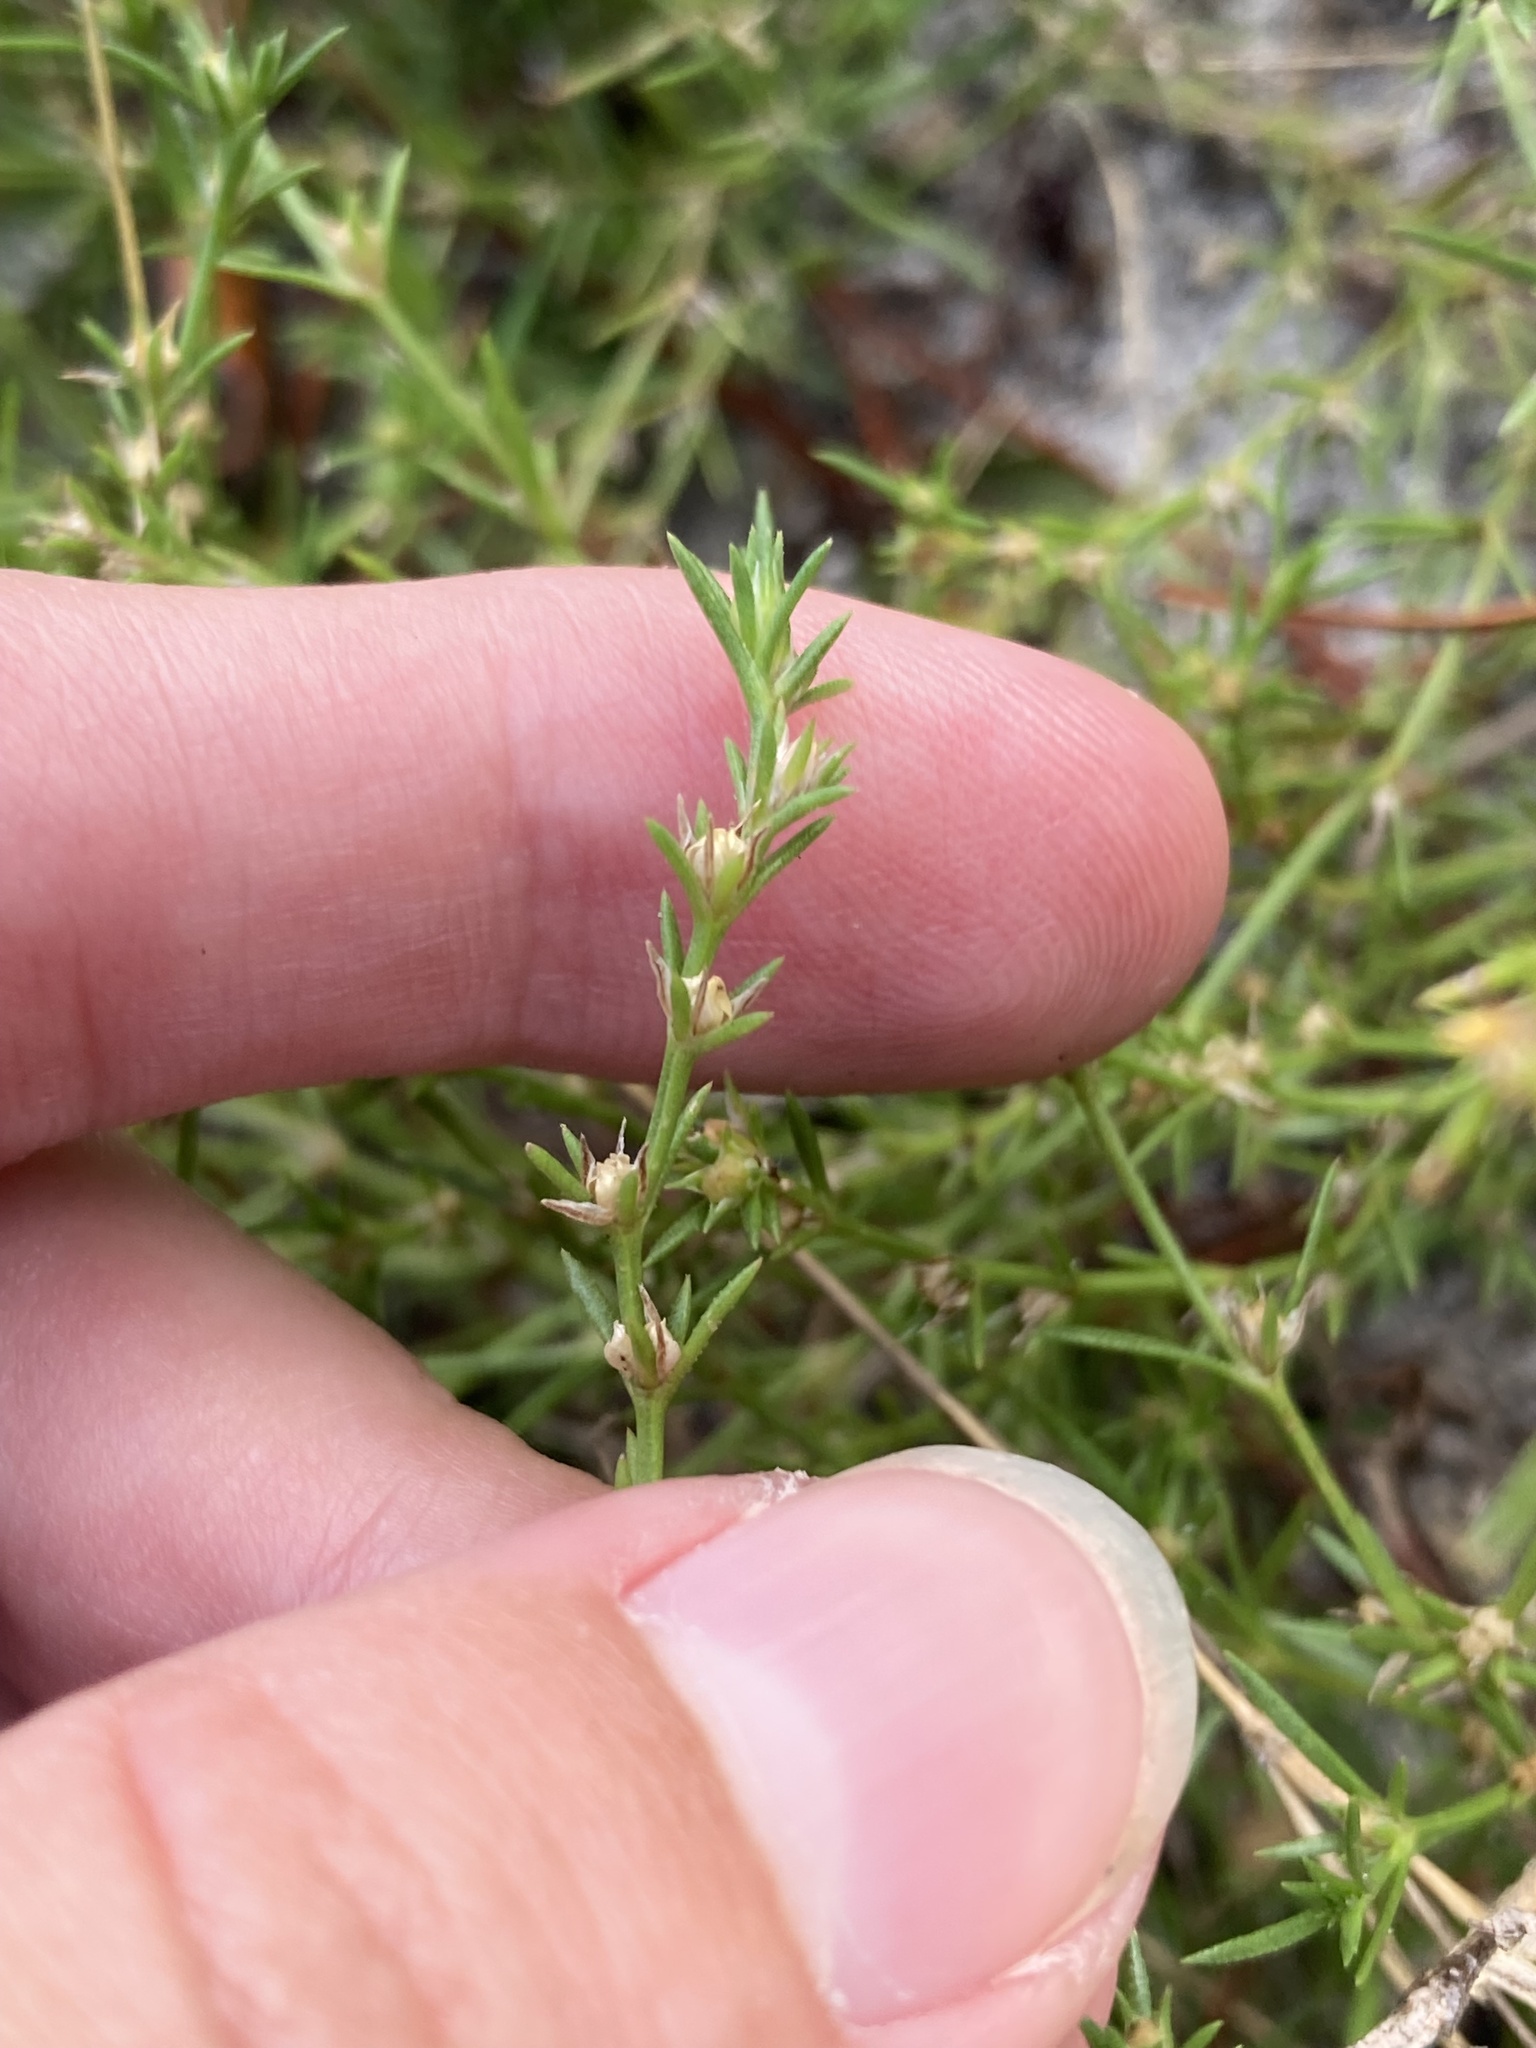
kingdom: Plantae
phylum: Tracheophyta
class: Magnoliopsida
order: Lamiales
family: Tetrachondraceae
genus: Polypremum
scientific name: Polypremum procumbens
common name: Juniper-leaf
